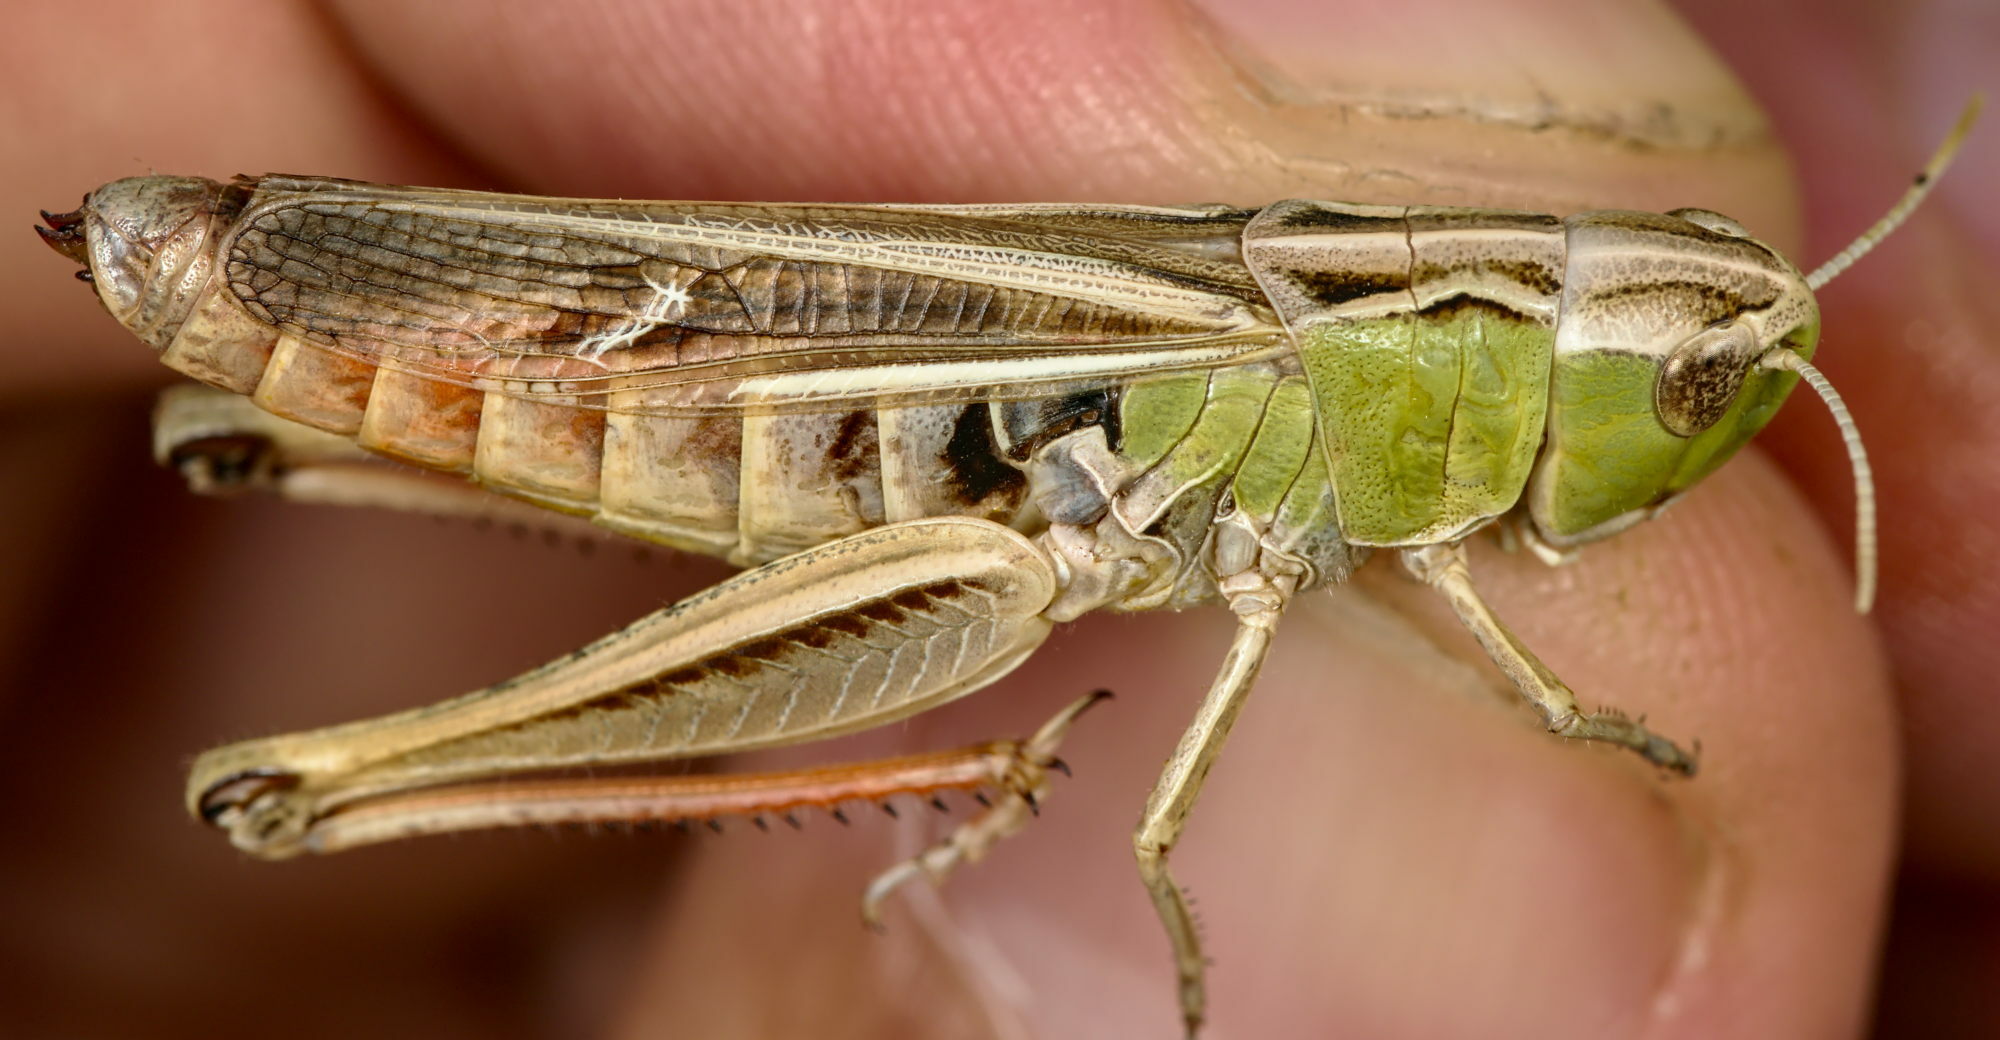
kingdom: Animalia
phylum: Arthropoda
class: Insecta
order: Orthoptera
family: Acrididae
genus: Stenobothrus
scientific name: Stenobothrus lineatus
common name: Stripe-winged grasshopper
